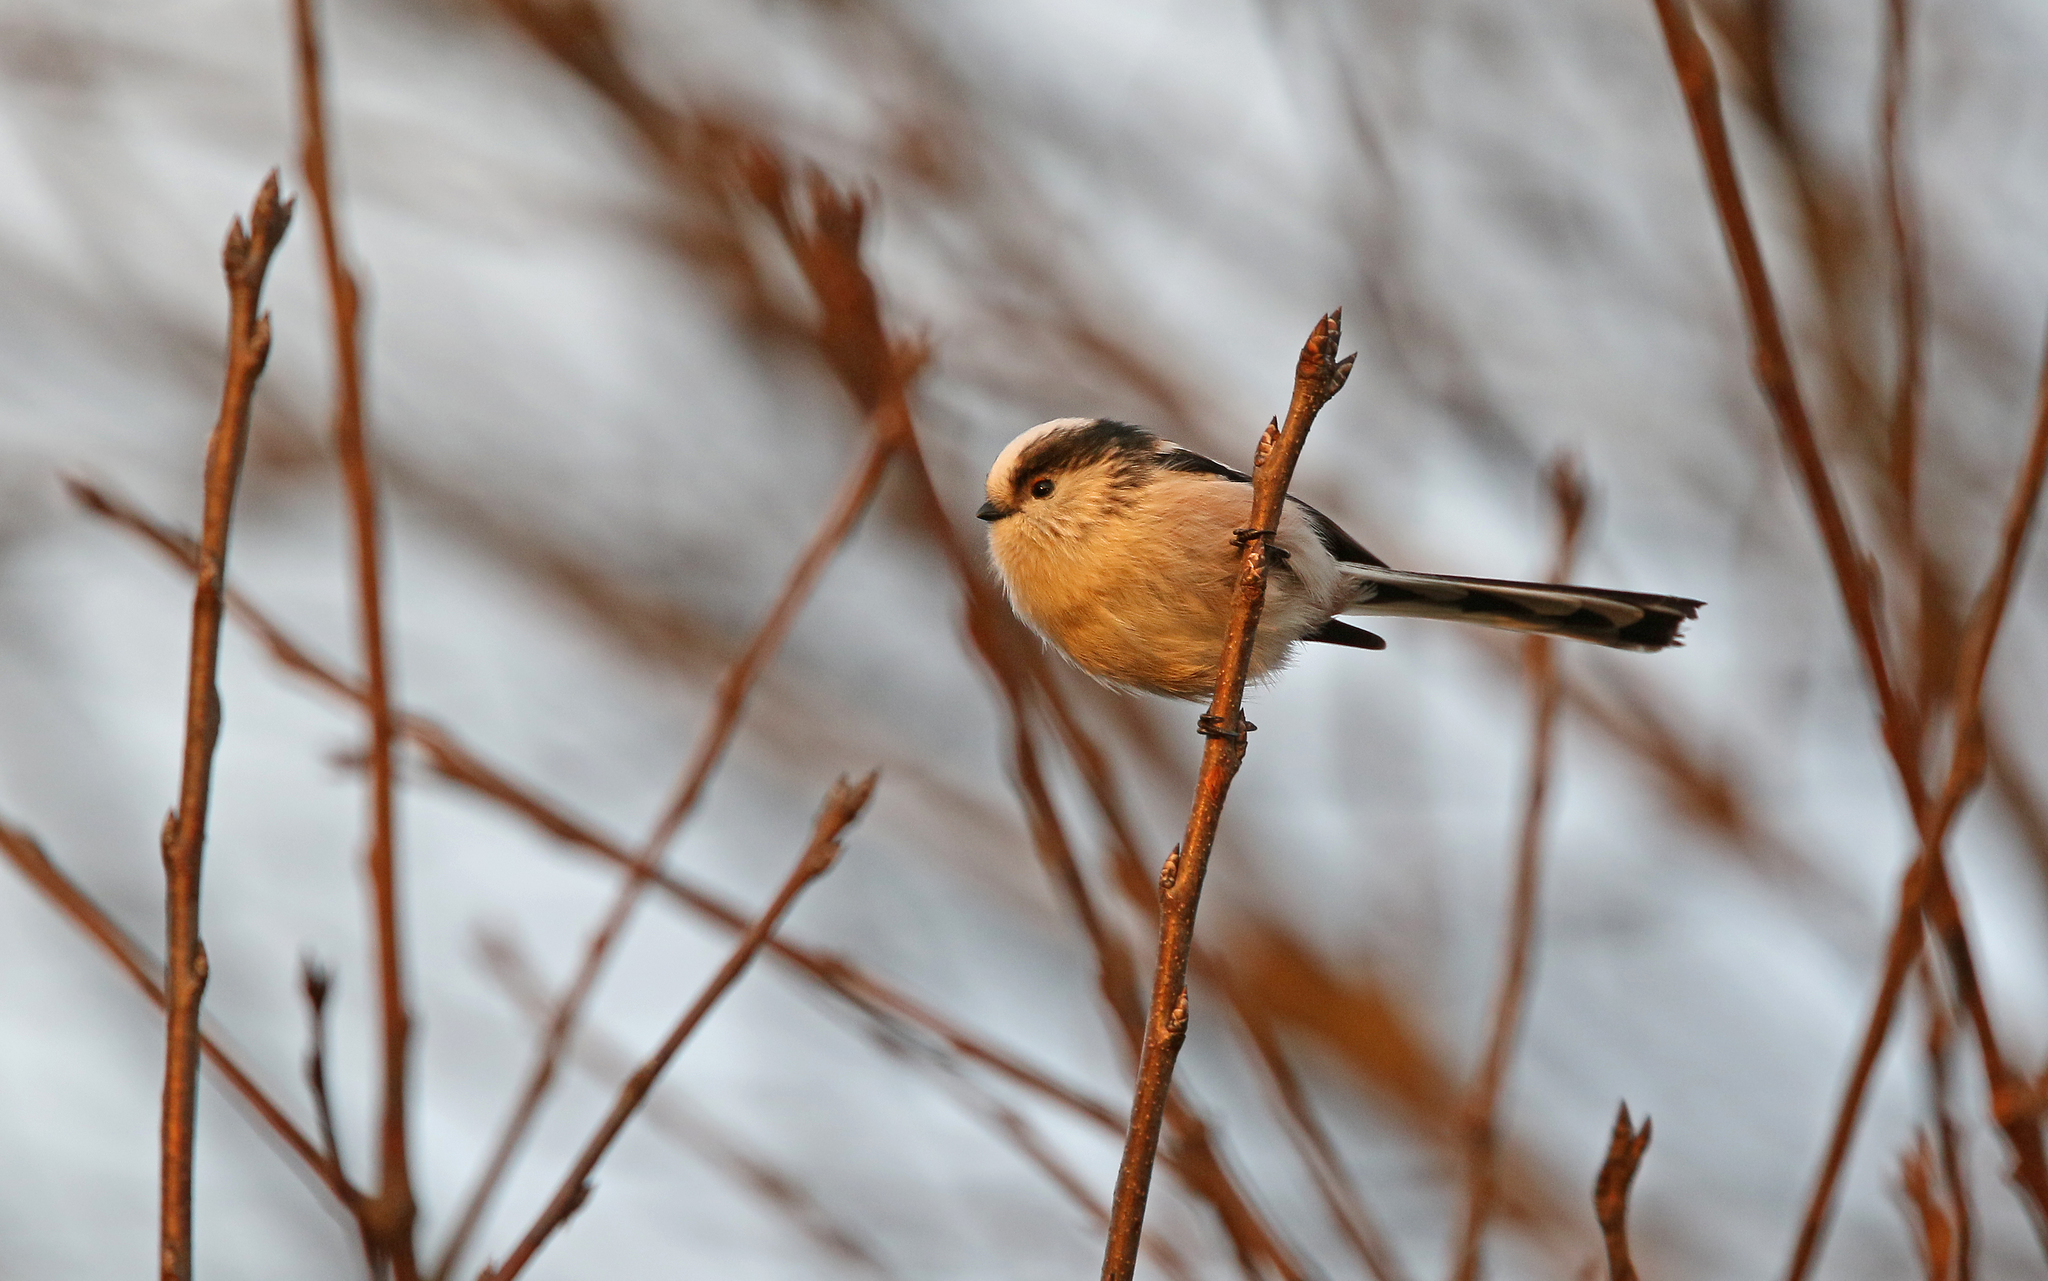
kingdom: Animalia
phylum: Chordata
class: Aves
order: Passeriformes
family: Aegithalidae
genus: Aegithalos
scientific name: Aegithalos caudatus
